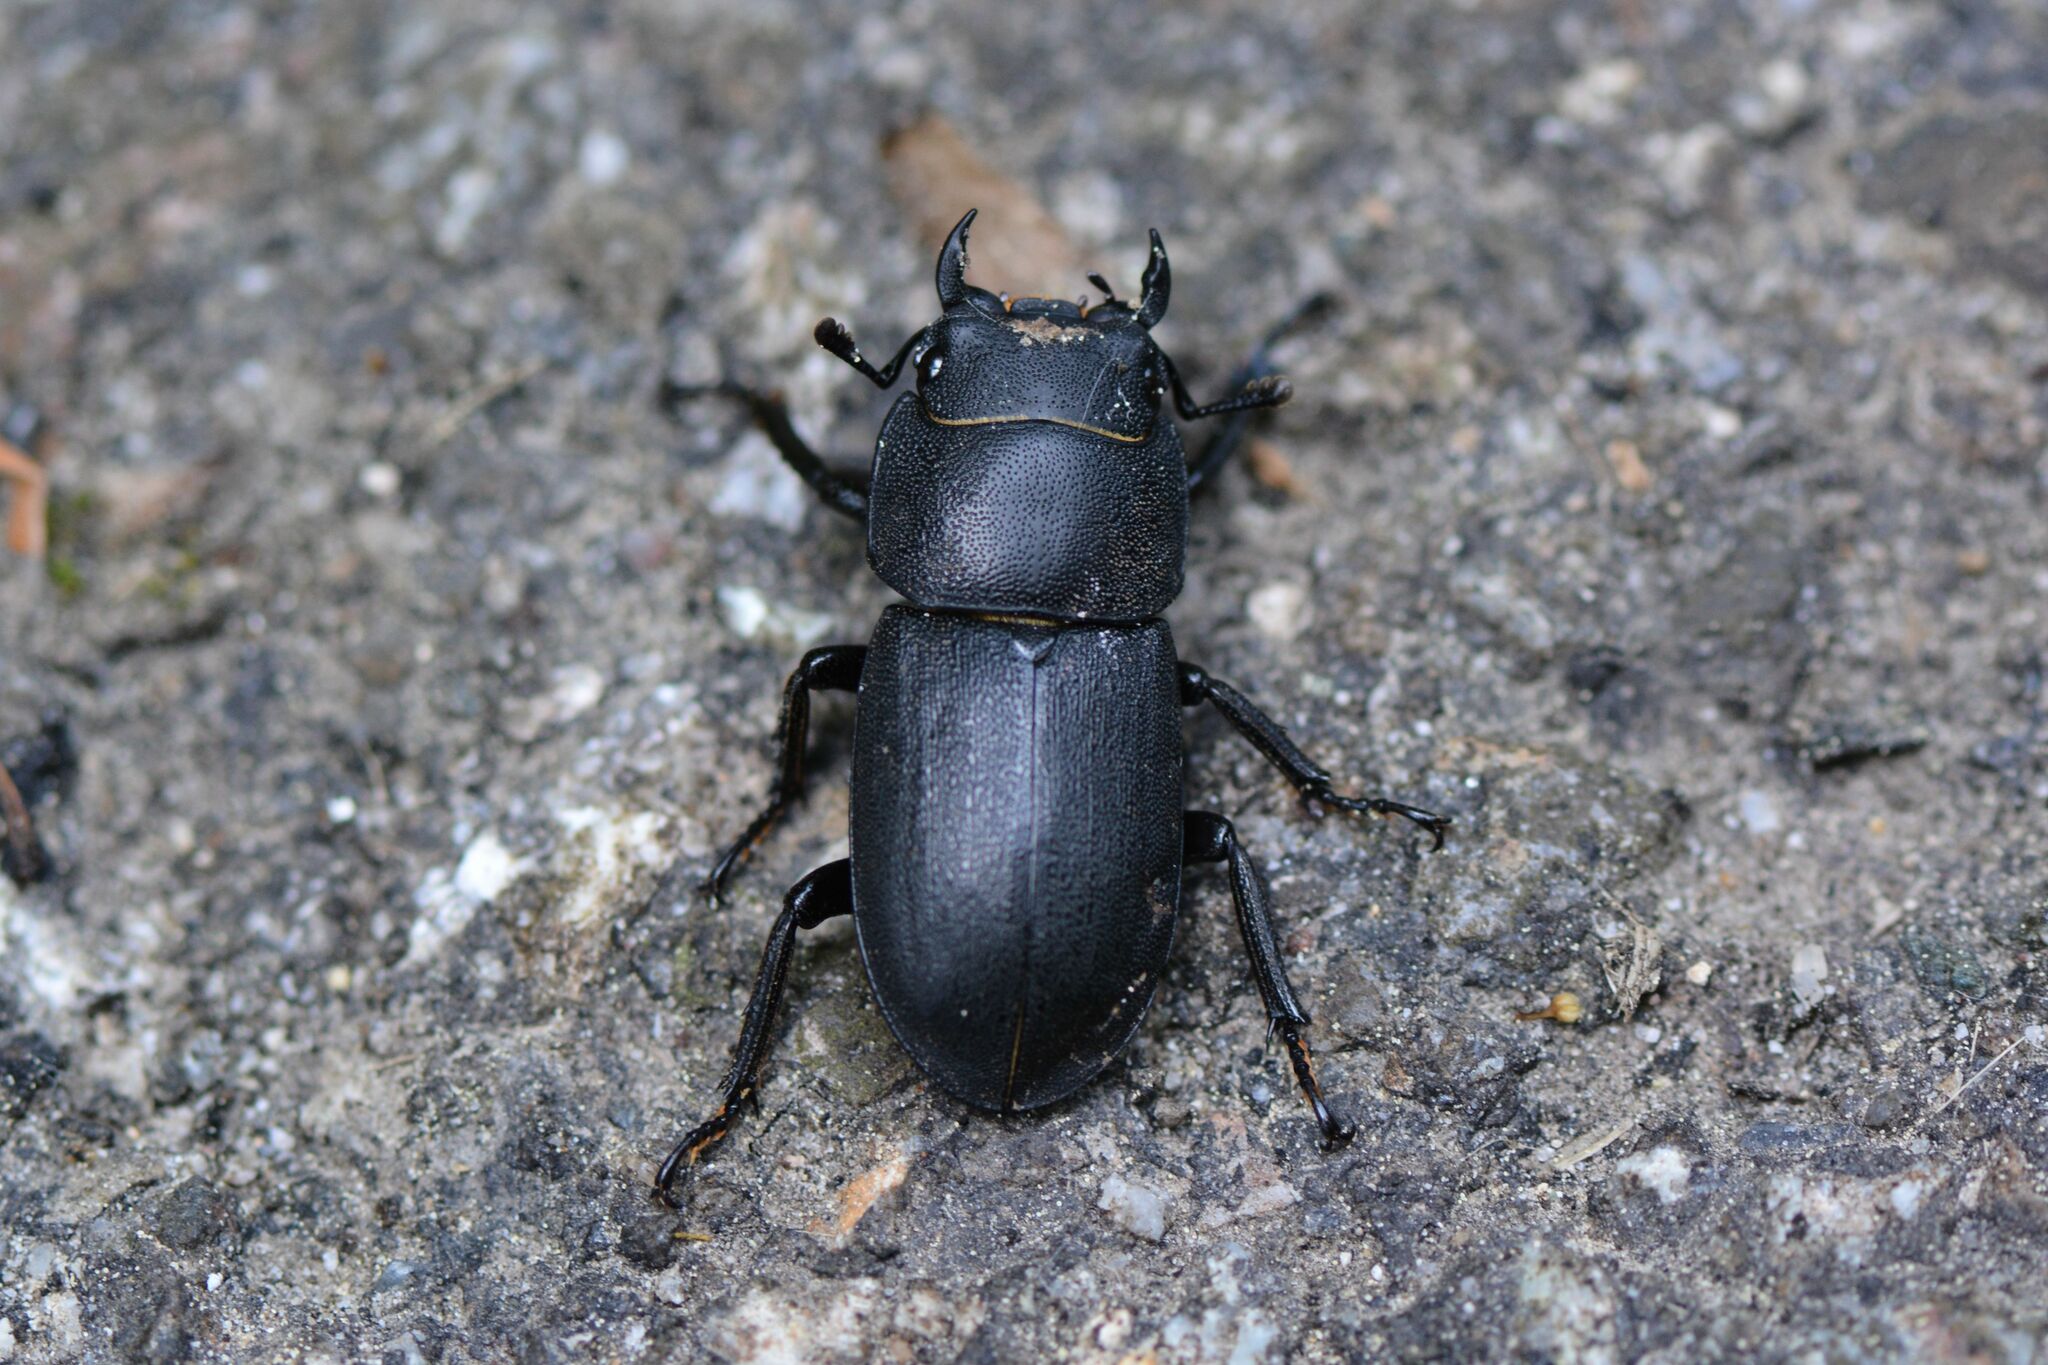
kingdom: Animalia
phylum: Arthropoda
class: Insecta
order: Coleoptera
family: Lucanidae
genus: Dorcus
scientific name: Dorcus parallelipipedus
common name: Lesser stag beetle
